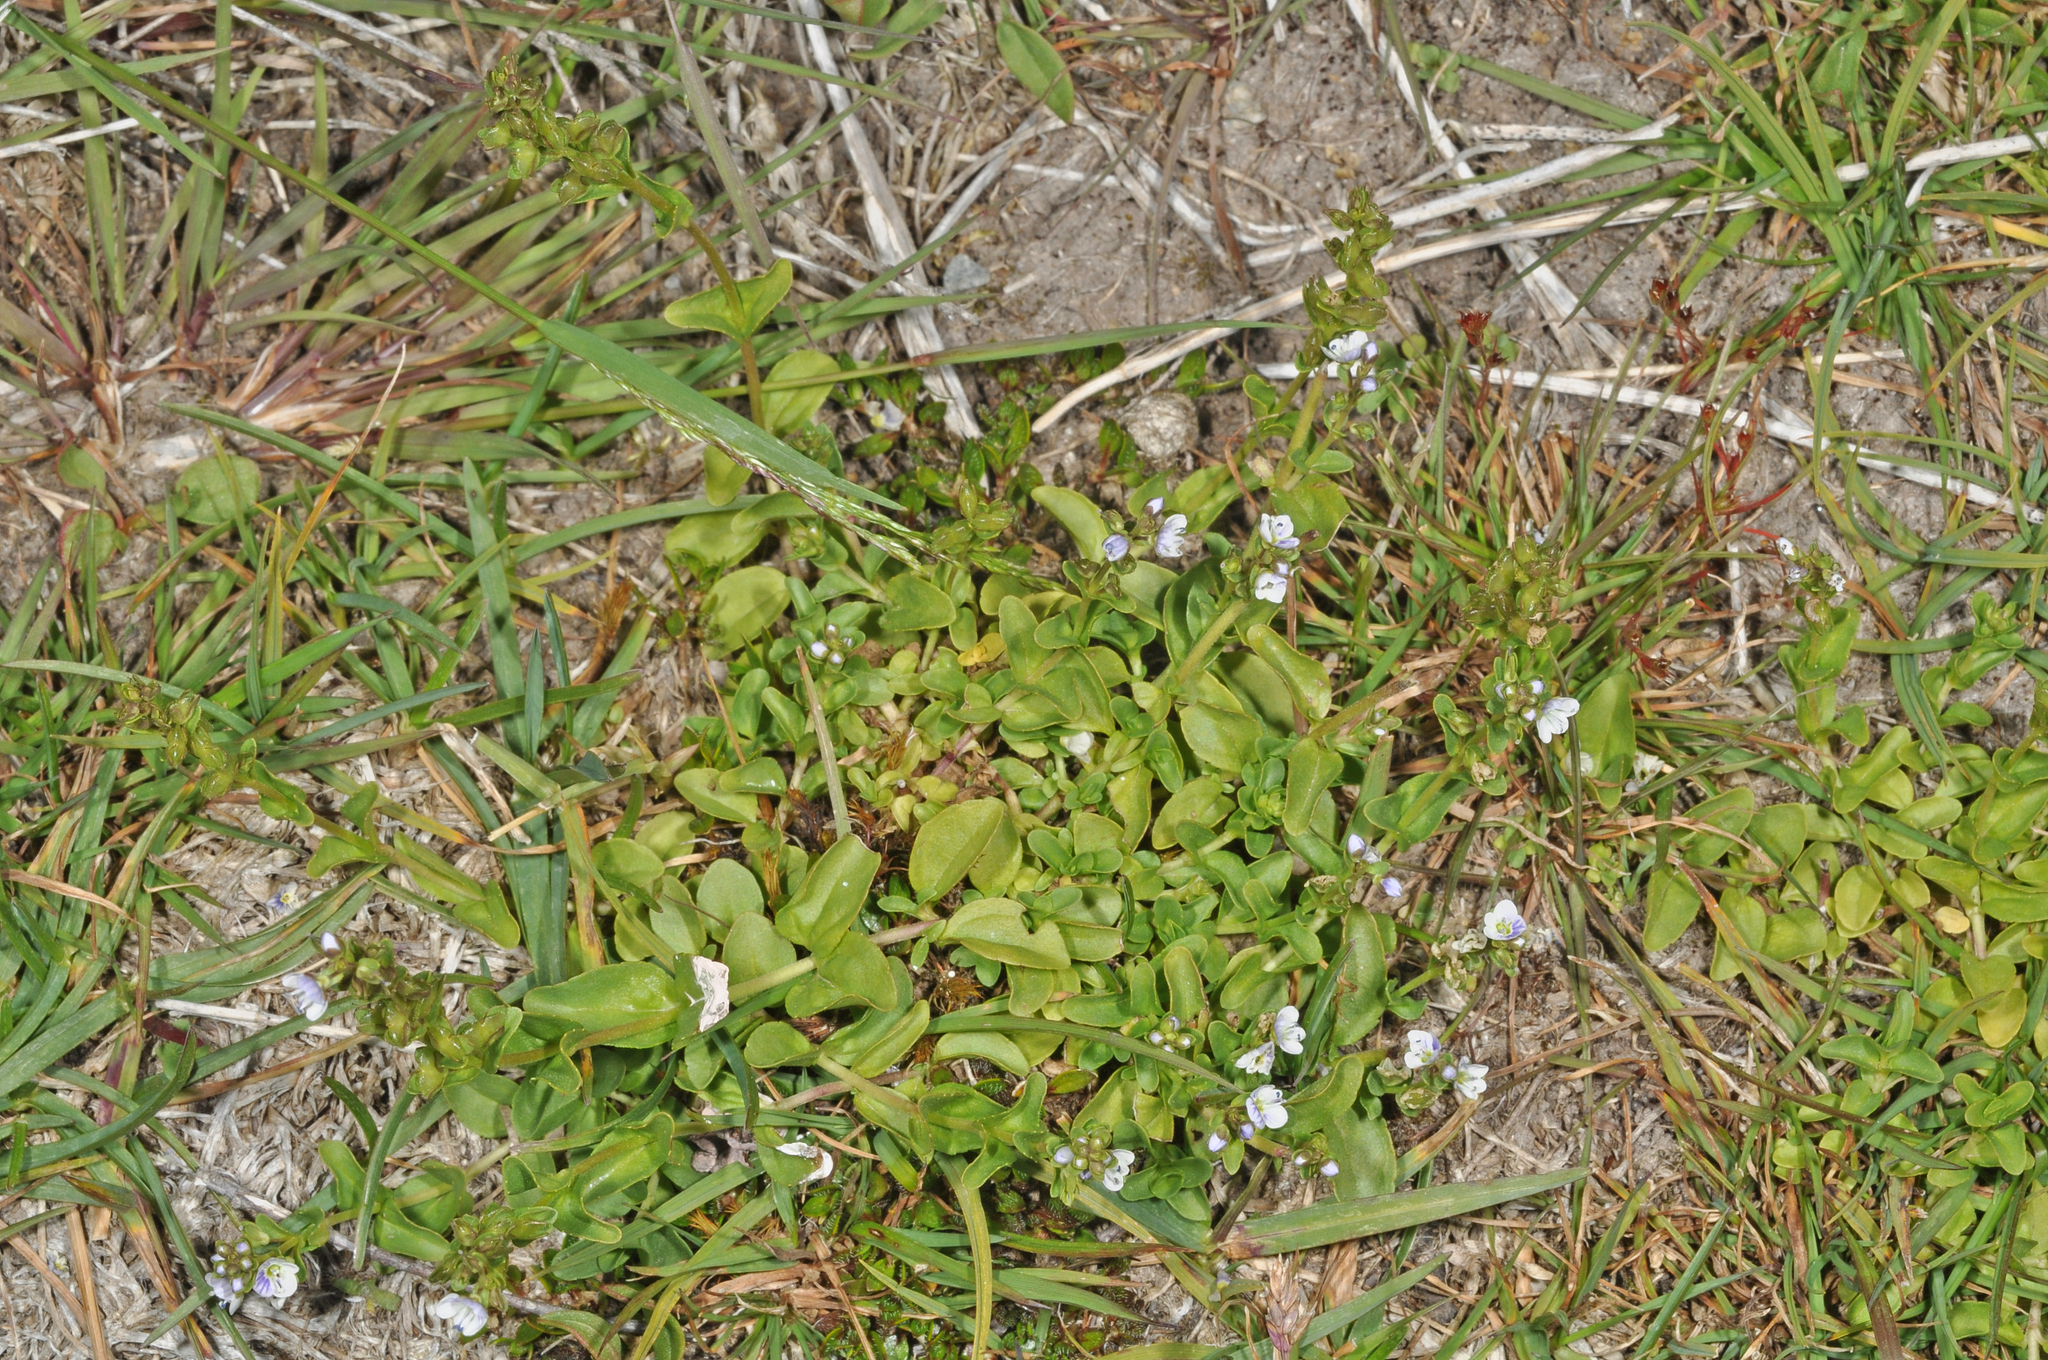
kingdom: Plantae
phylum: Tracheophyta
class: Magnoliopsida
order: Lamiales
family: Plantaginaceae
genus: Veronica
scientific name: Veronica serpyllifolia
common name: Thyme-leaved speedwell
